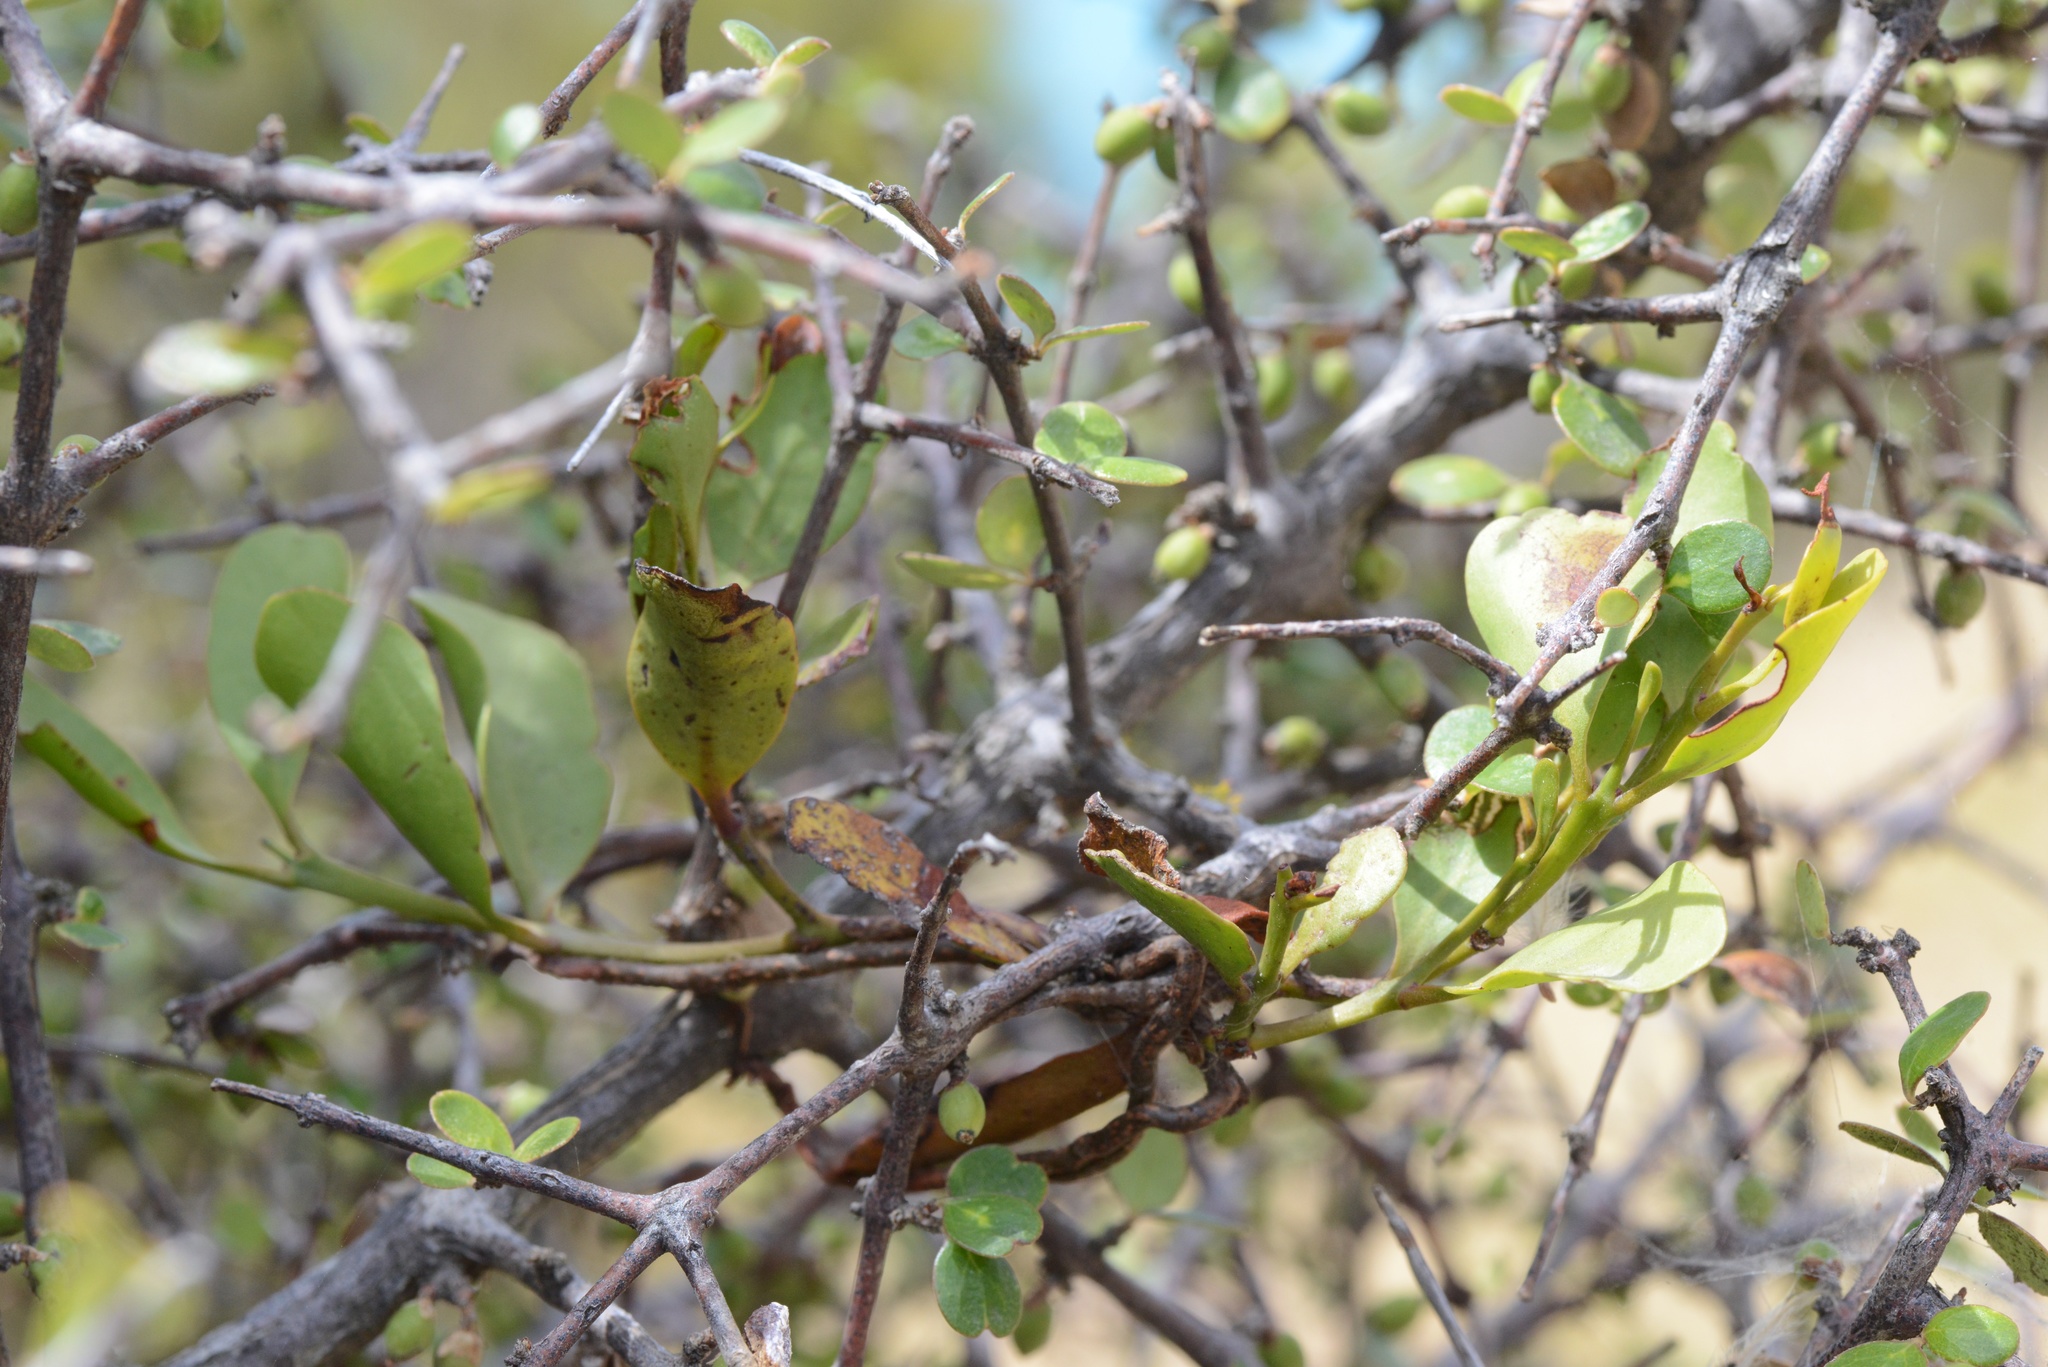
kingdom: Plantae
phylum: Tracheophyta
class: Magnoliopsida
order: Santalales
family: Loranthaceae
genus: Ileostylus
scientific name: Ileostylus micranthus
